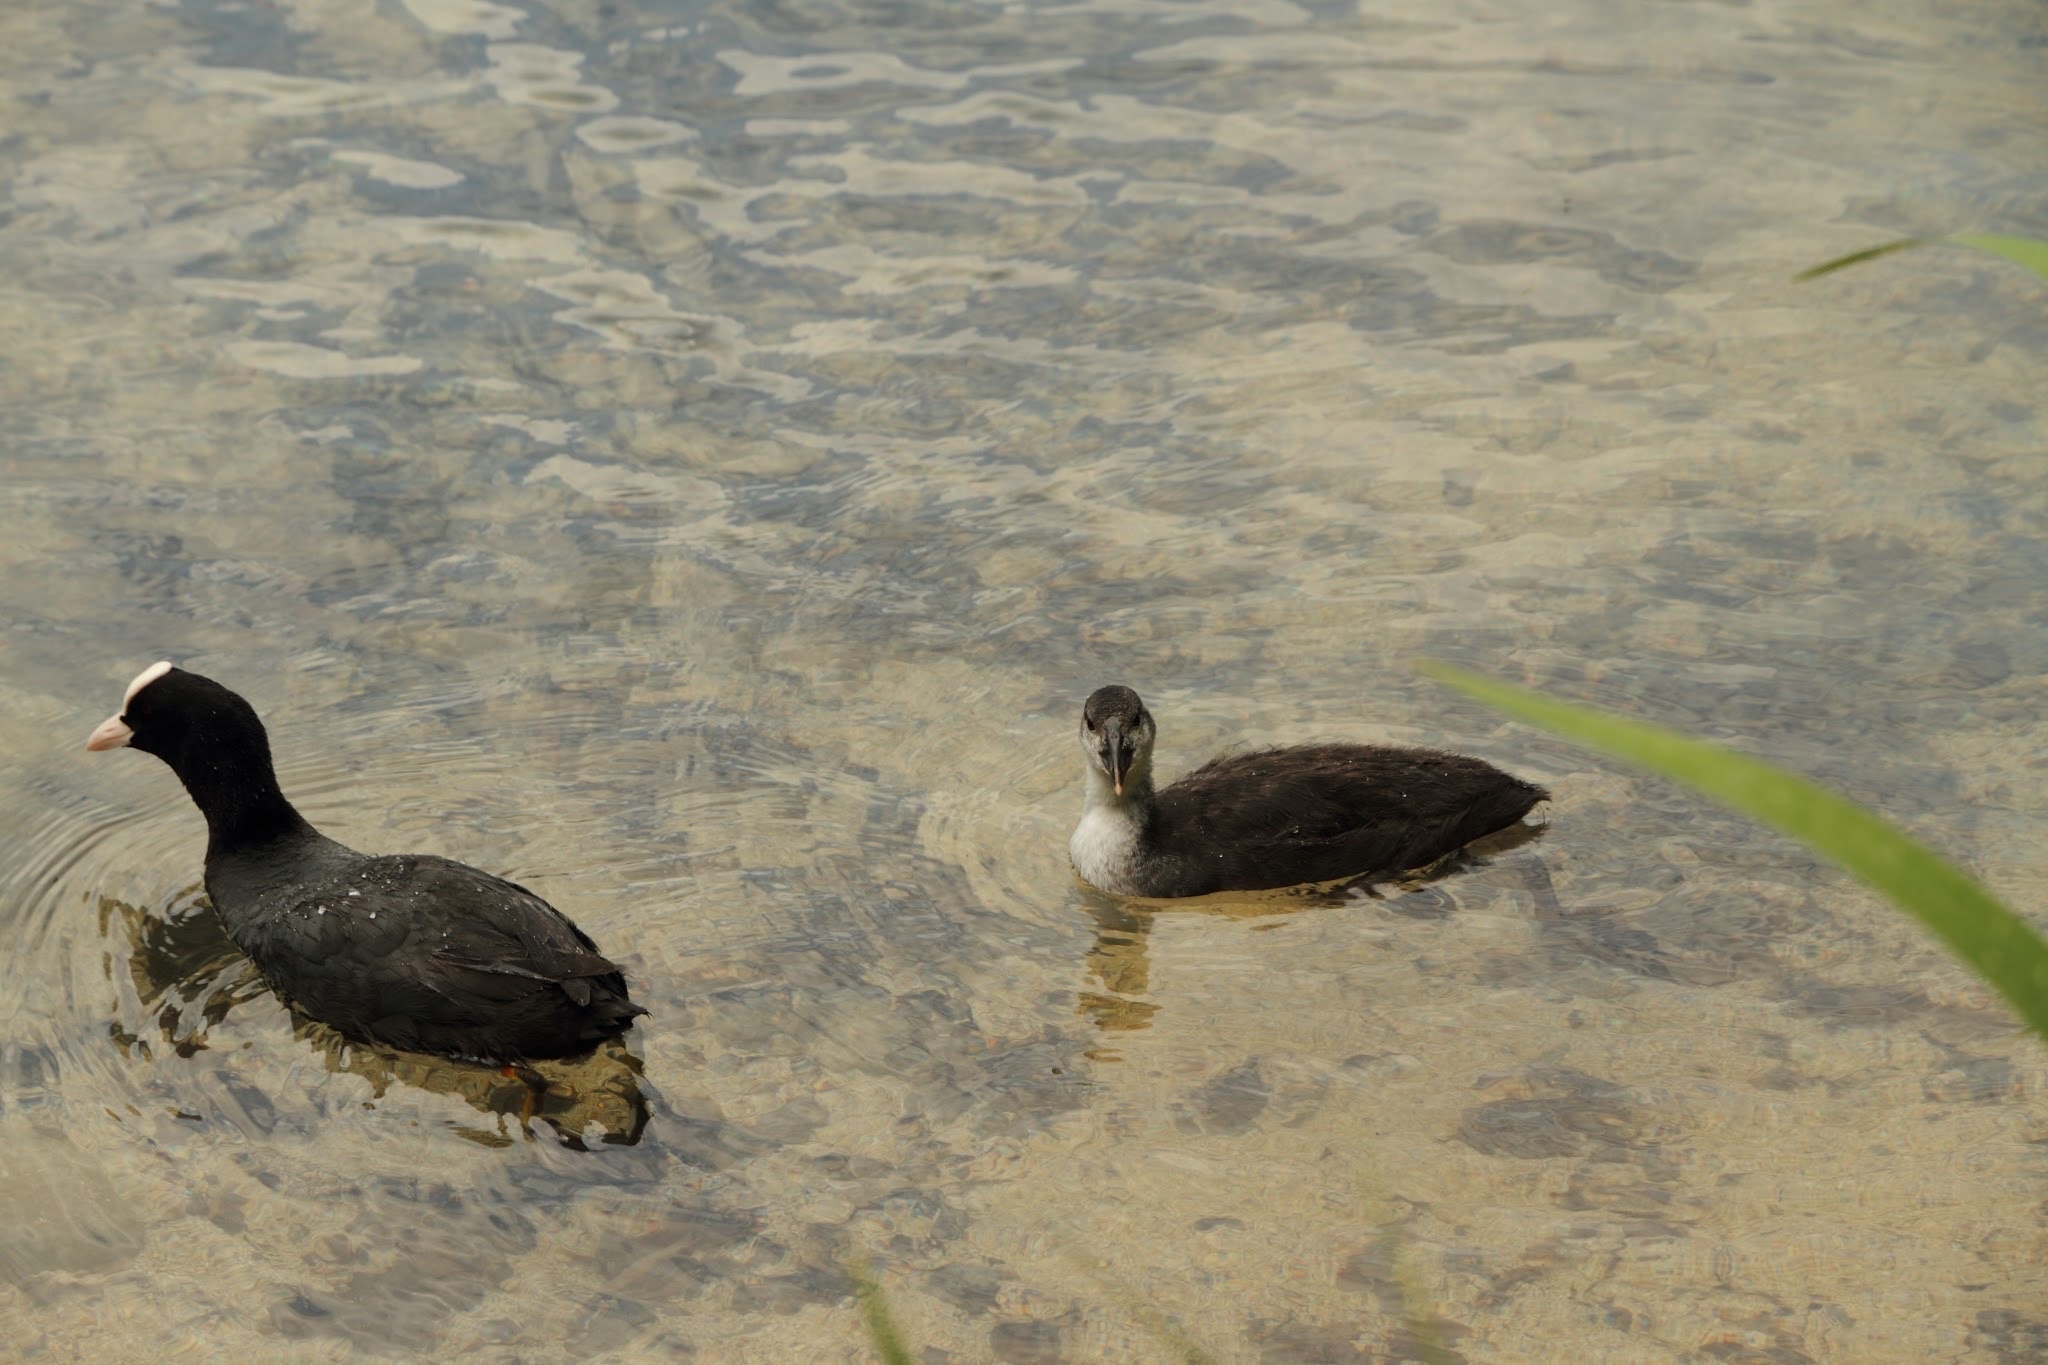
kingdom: Animalia
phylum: Chordata
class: Aves
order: Gruiformes
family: Rallidae
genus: Fulica
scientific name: Fulica atra
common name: Eurasian coot
